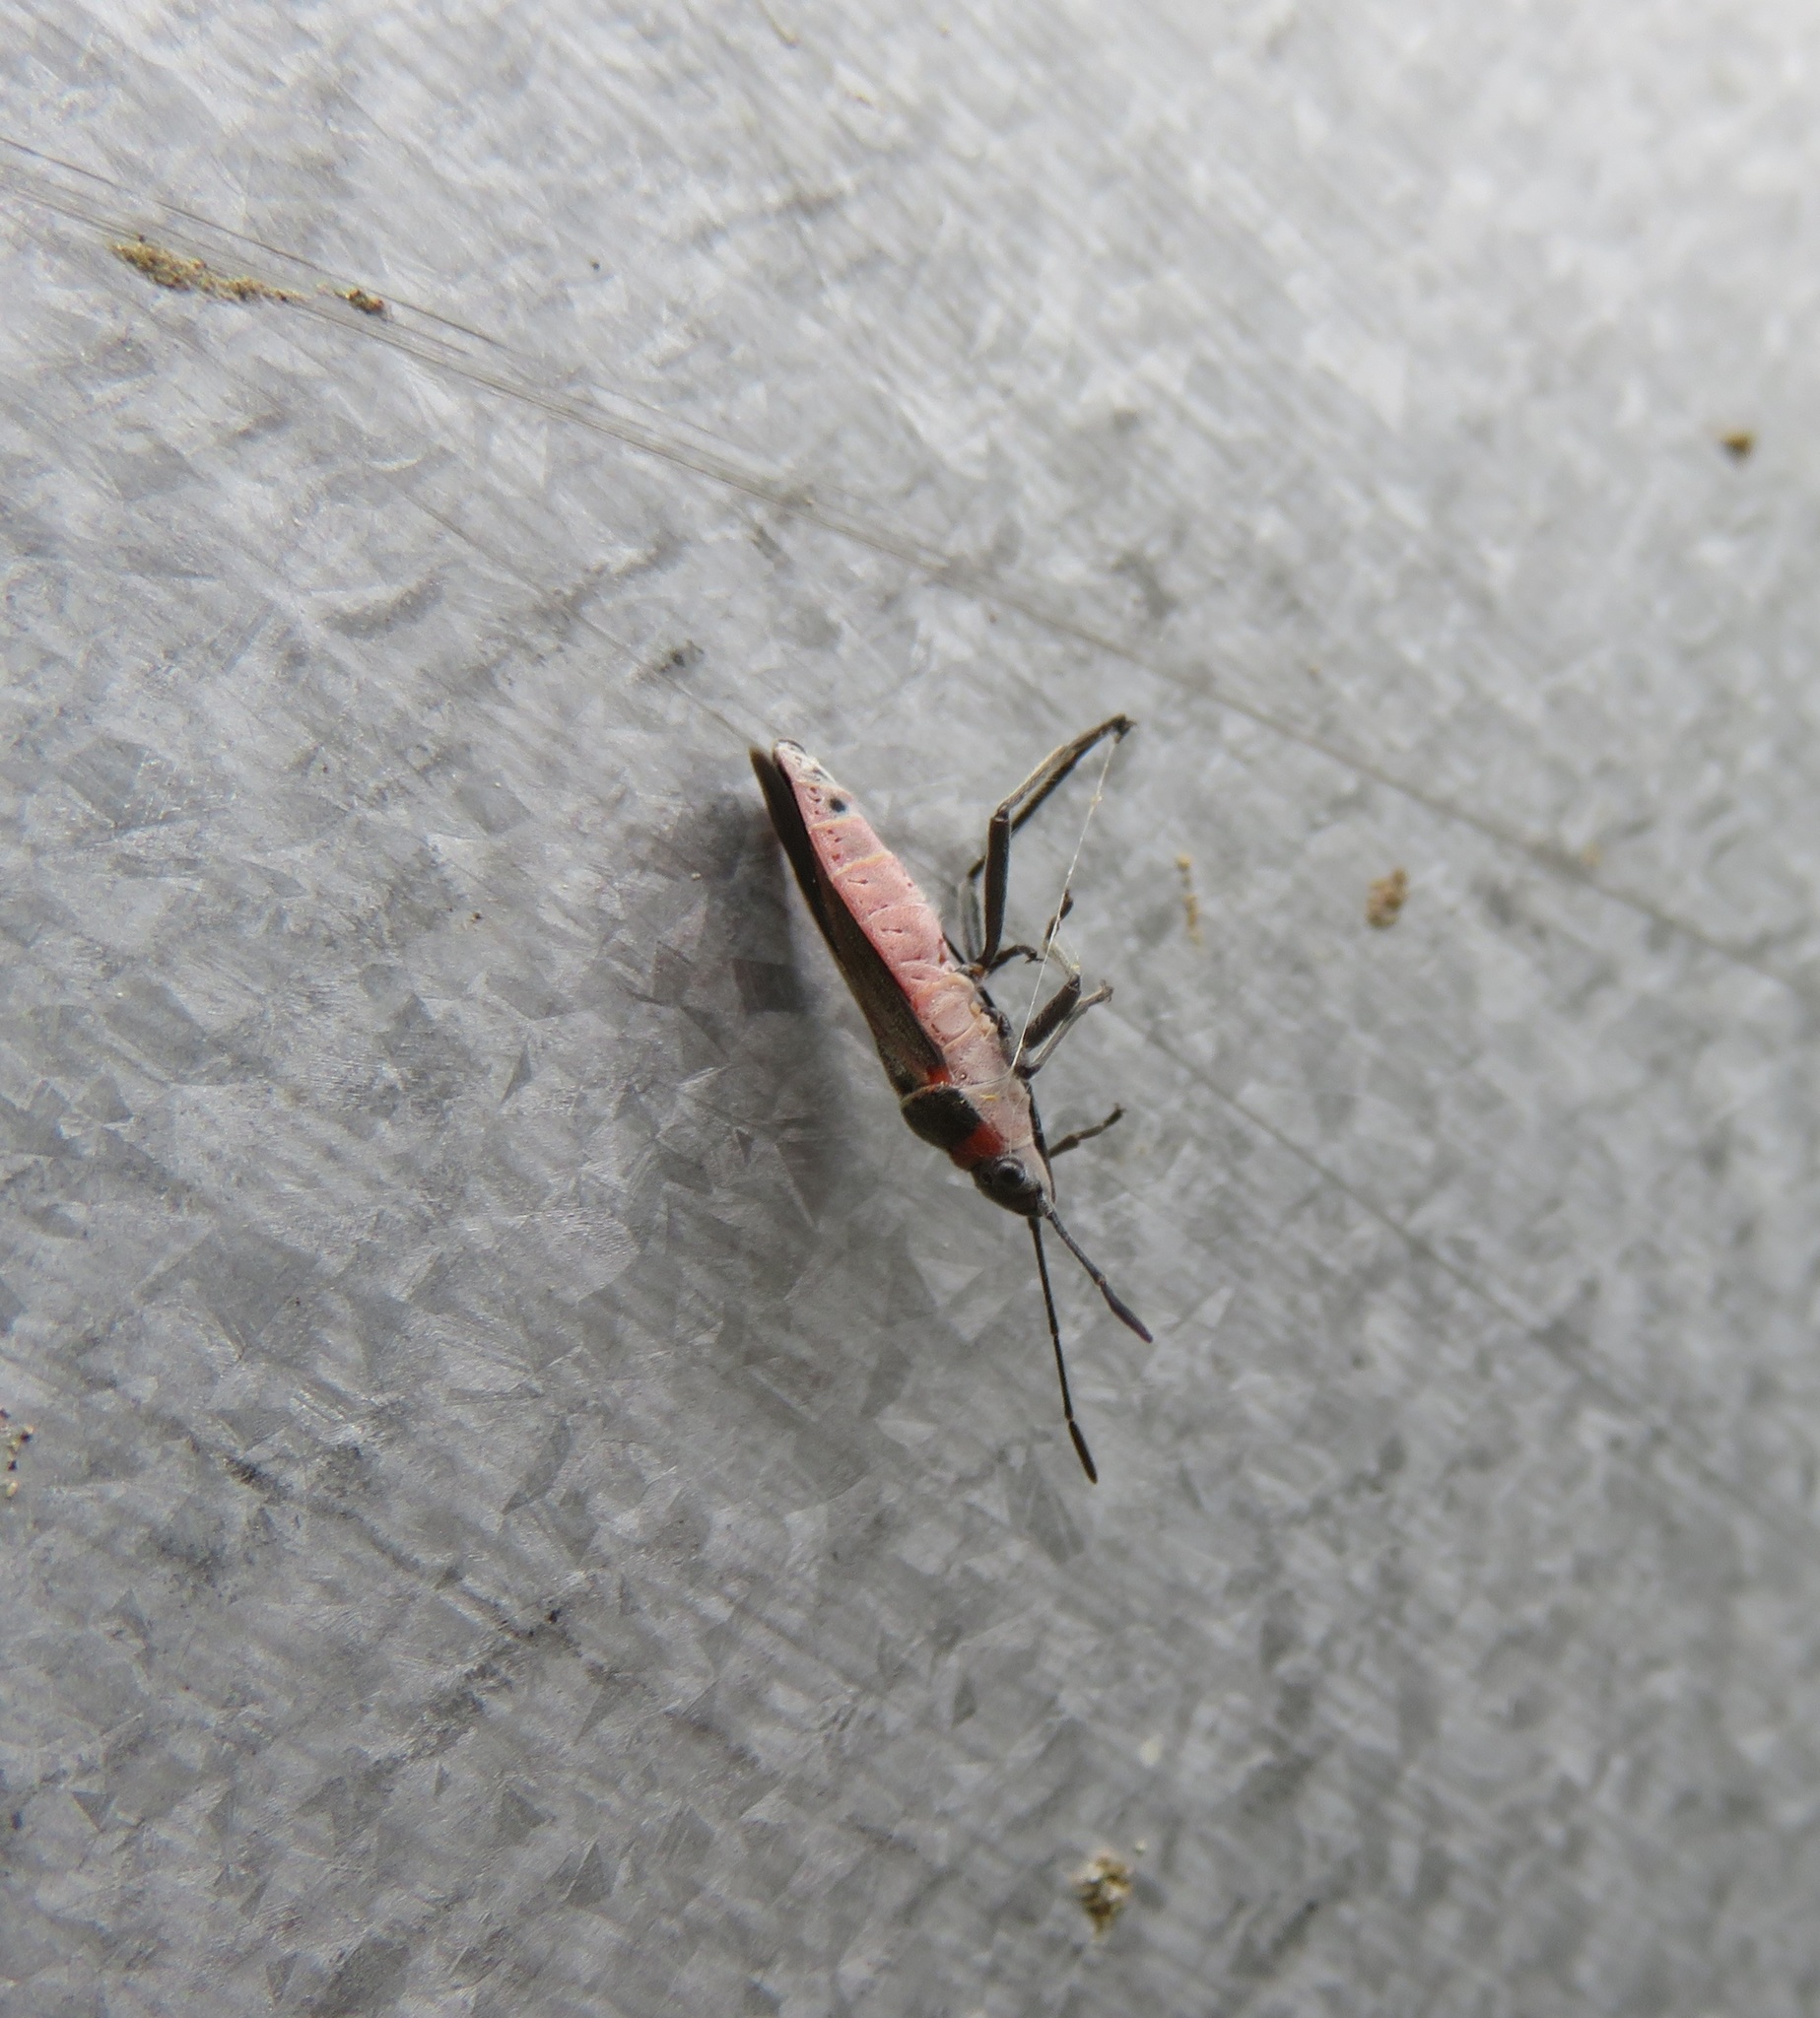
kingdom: Animalia
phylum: Arthropoda
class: Insecta
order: Hemiptera
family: Lygaeidae
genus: Arocatus
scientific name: Arocatus rusticus
